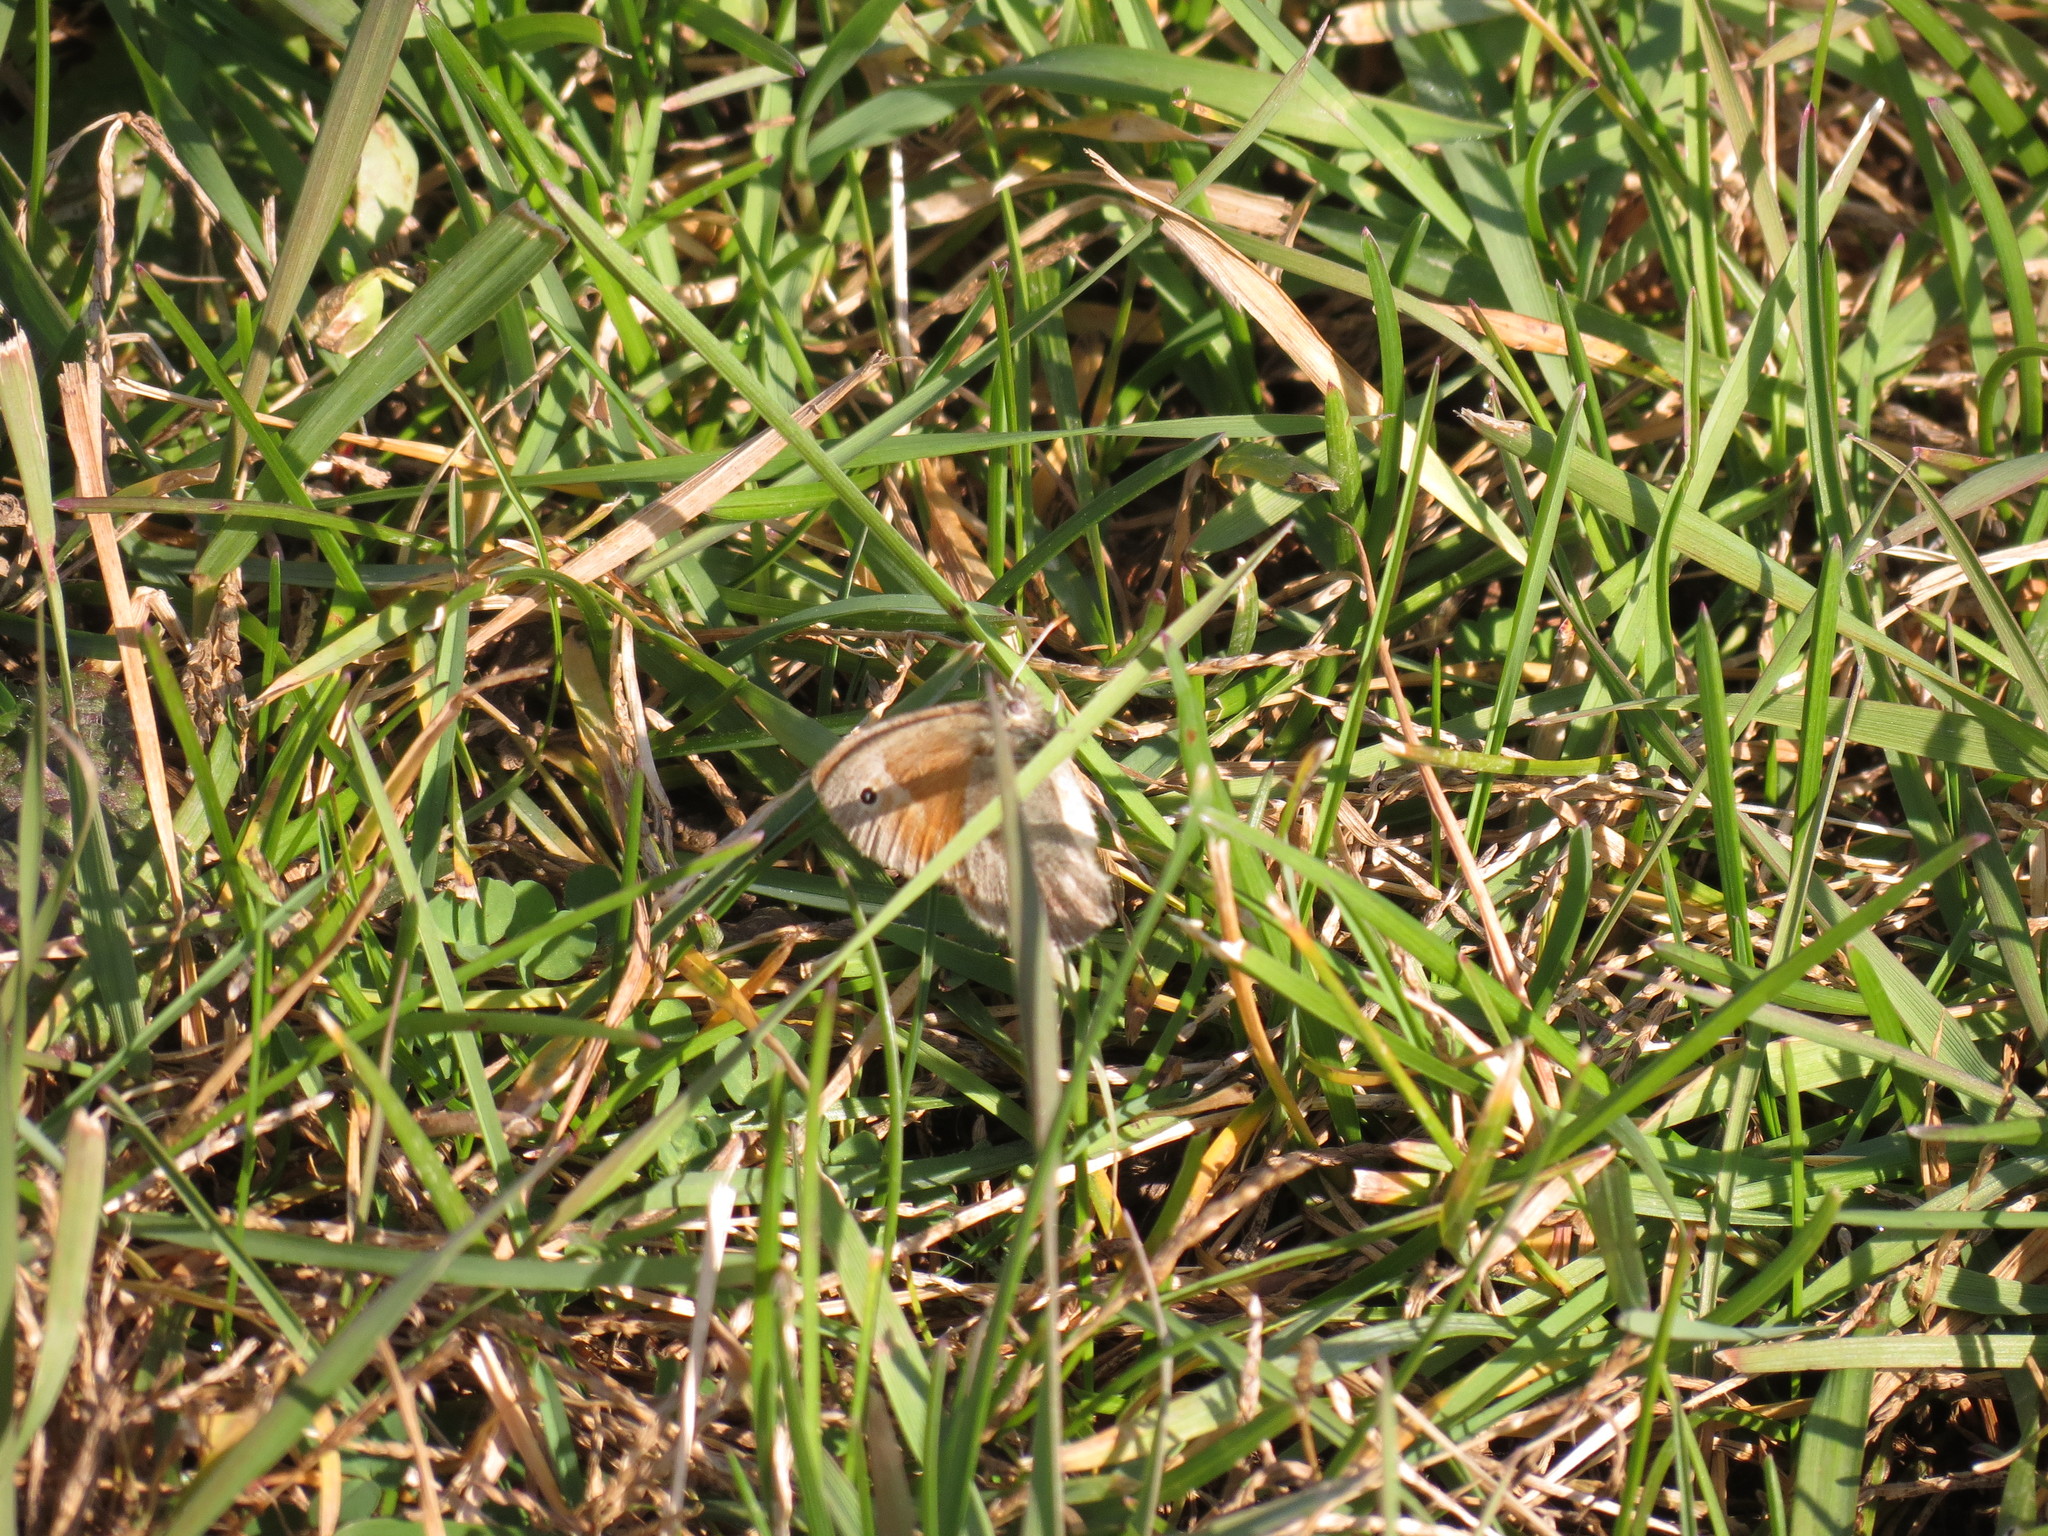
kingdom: Animalia
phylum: Arthropoda
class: Insecta
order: Lepidoptera
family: Nymphalidae
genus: Coenonympha
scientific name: Coenonympha california
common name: Common ringlet
